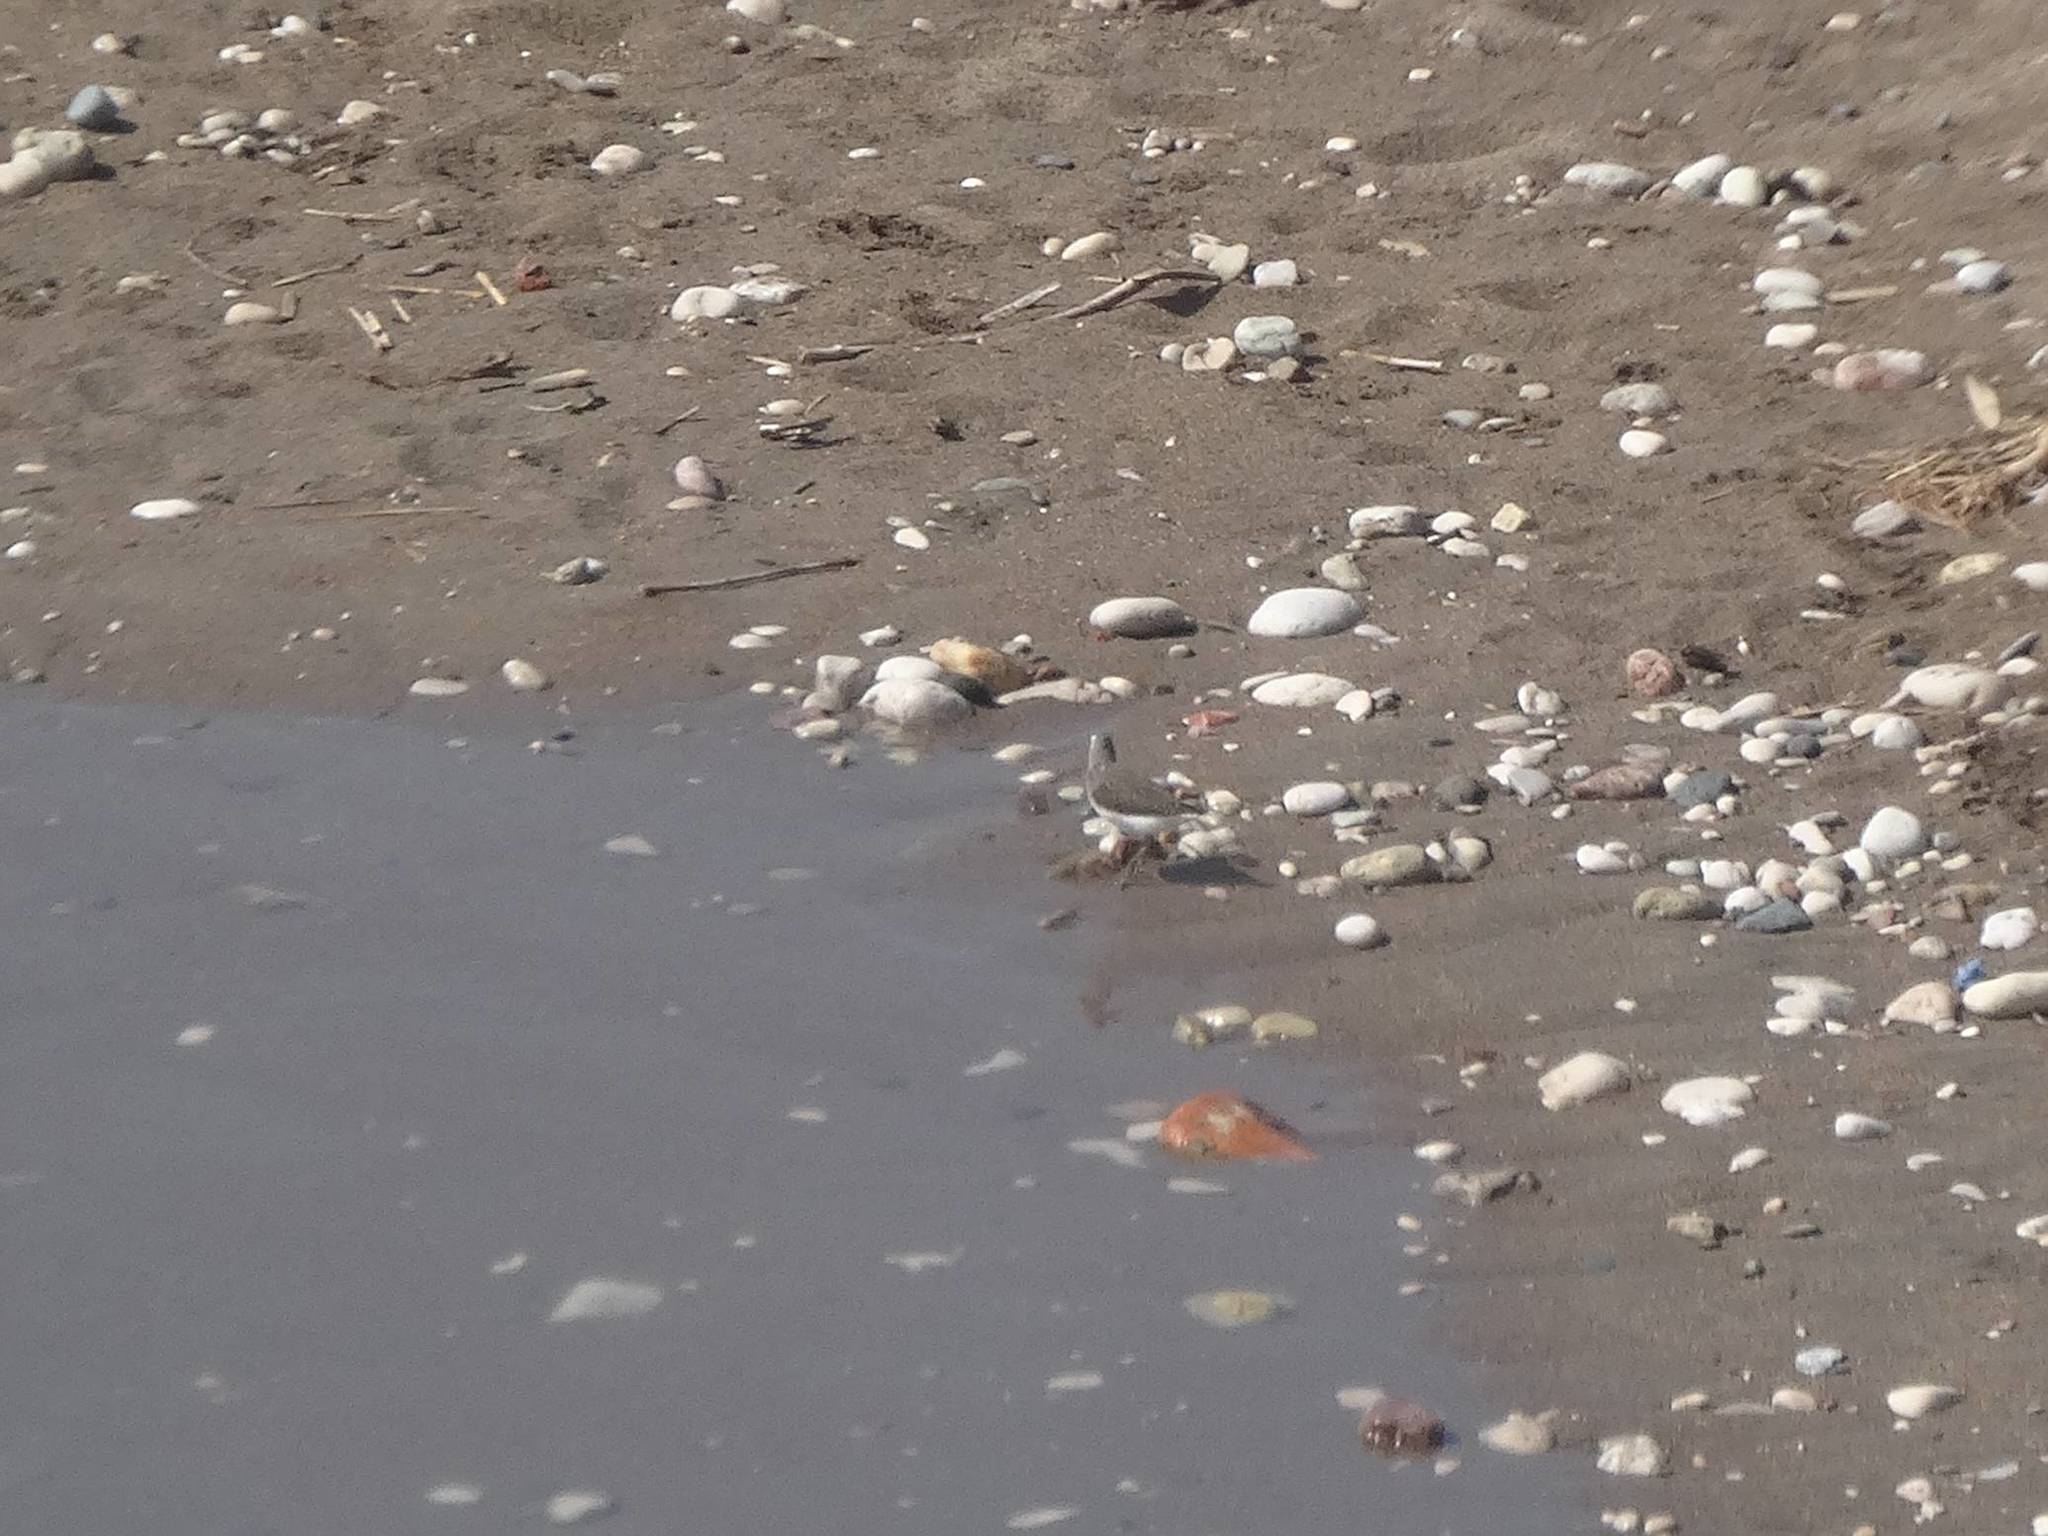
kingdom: Animalia
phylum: Chordata
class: Aves
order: Charadriiformes
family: Scolopacidae
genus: Tringa
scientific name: Tringa ochropus
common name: Green sandpiper
